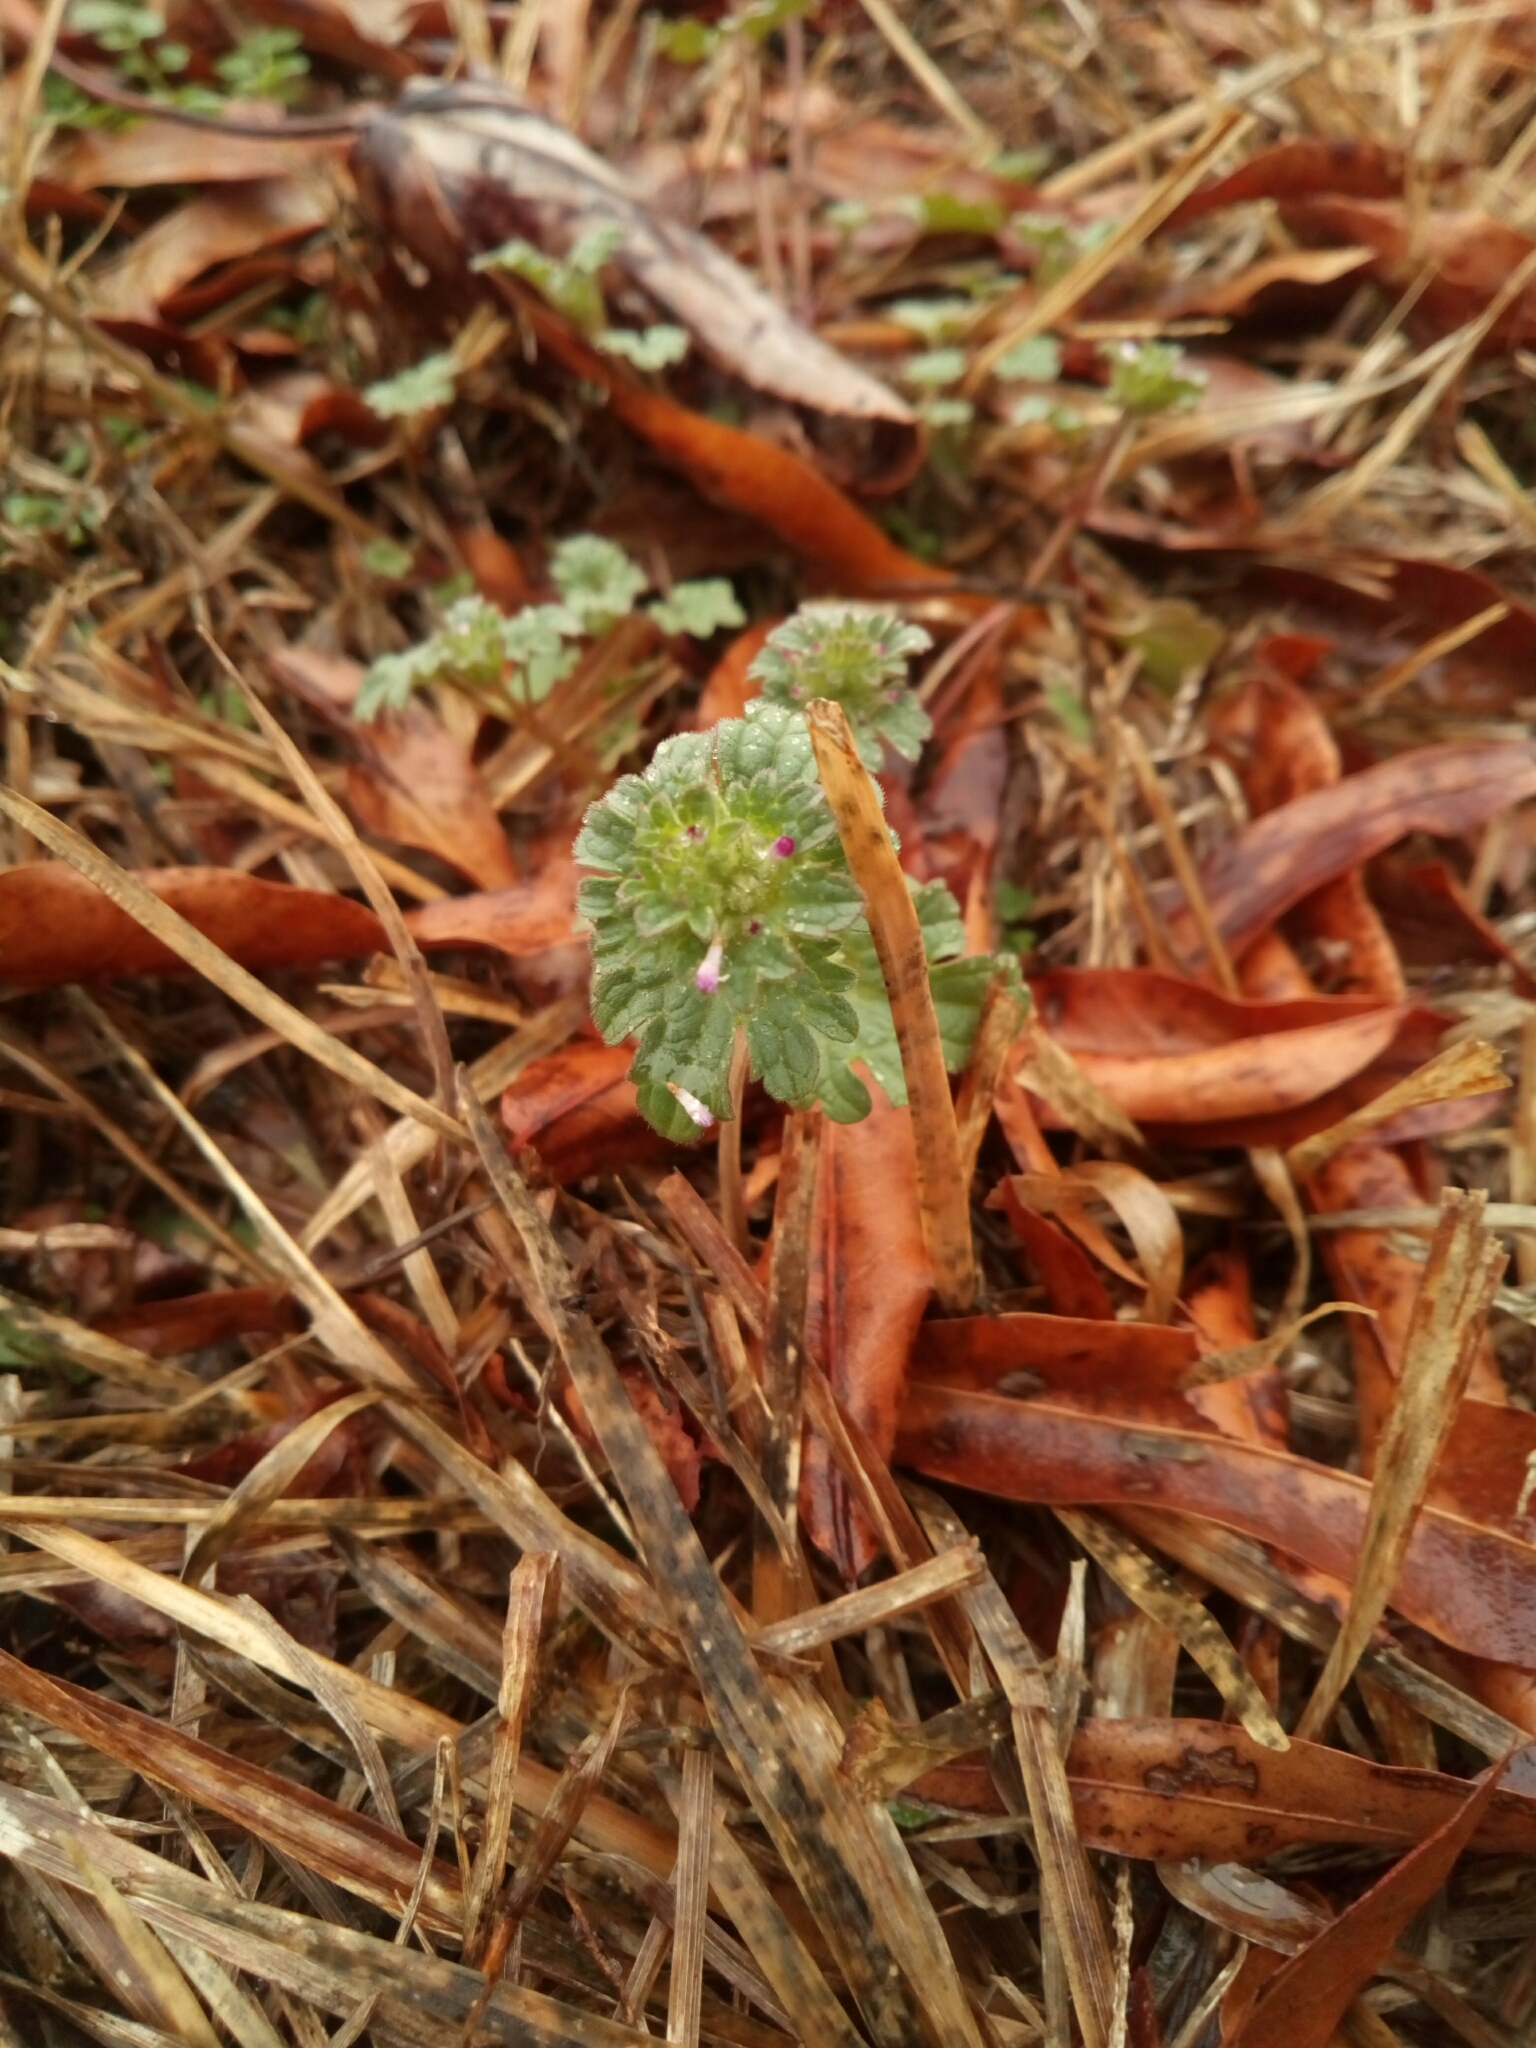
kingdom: Plantae
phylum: Tracheophyta
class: Magnoliopsida
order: Lamiales
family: Lamiaceae
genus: Lamium
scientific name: Lamium amplexicaule
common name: Henbit dead-nettle
